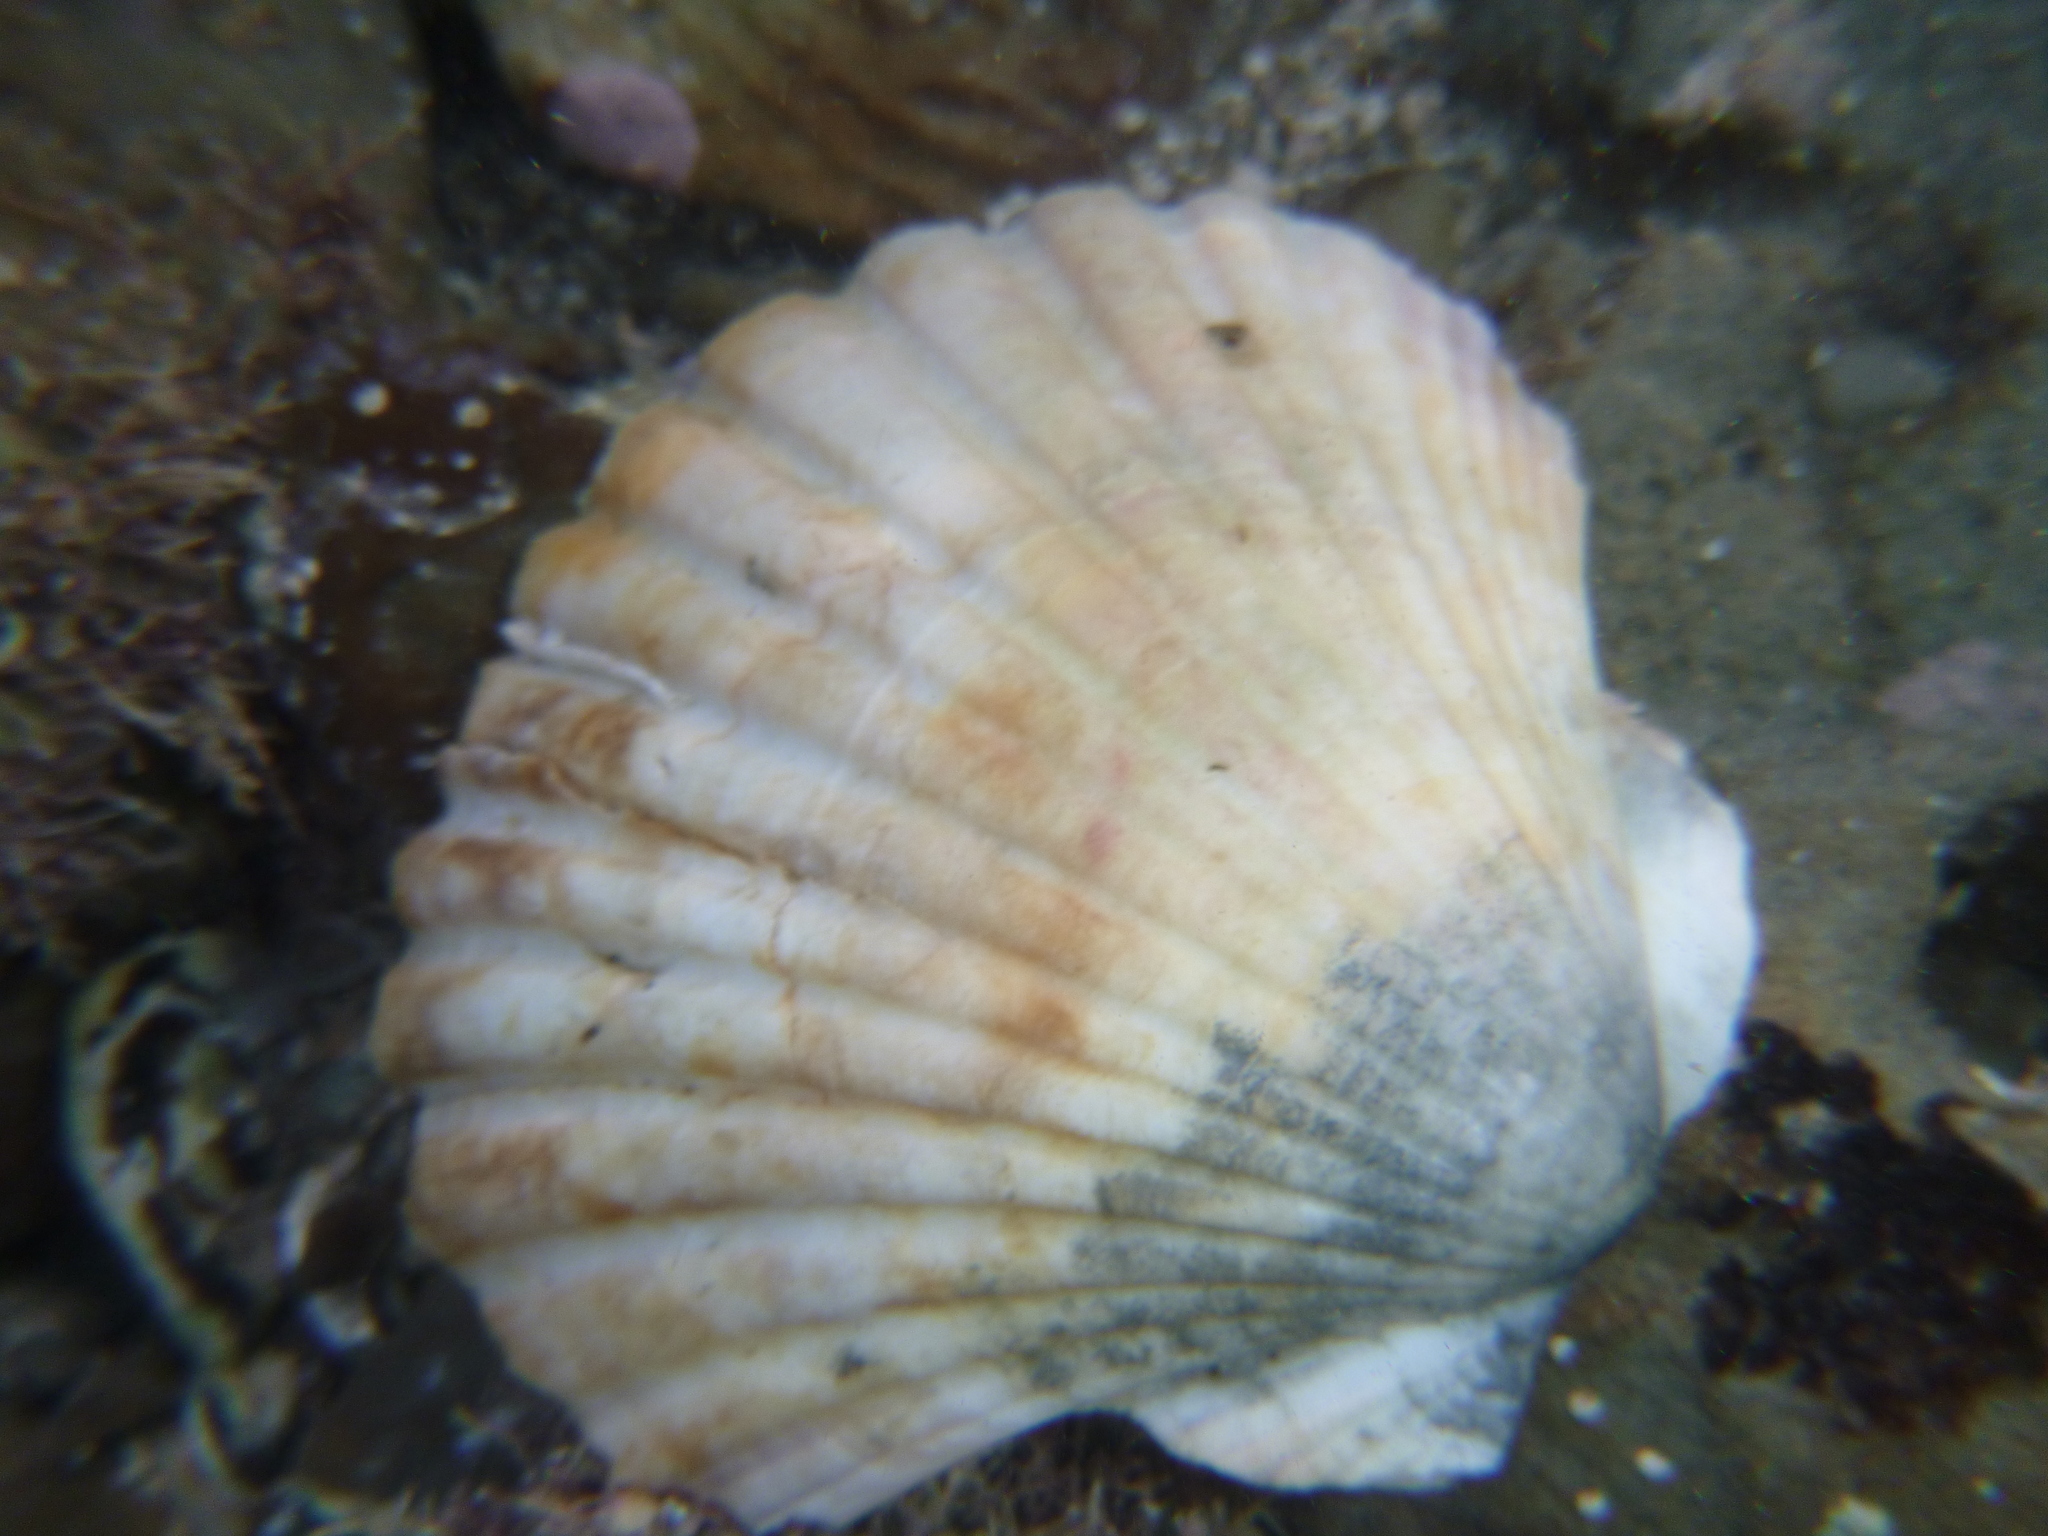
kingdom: Animalia
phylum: Mollusca
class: Bivalvia
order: Pectinida
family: Pectinidae
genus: Pecten
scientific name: Pecten novaezelandiae
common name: New zealand scallop
